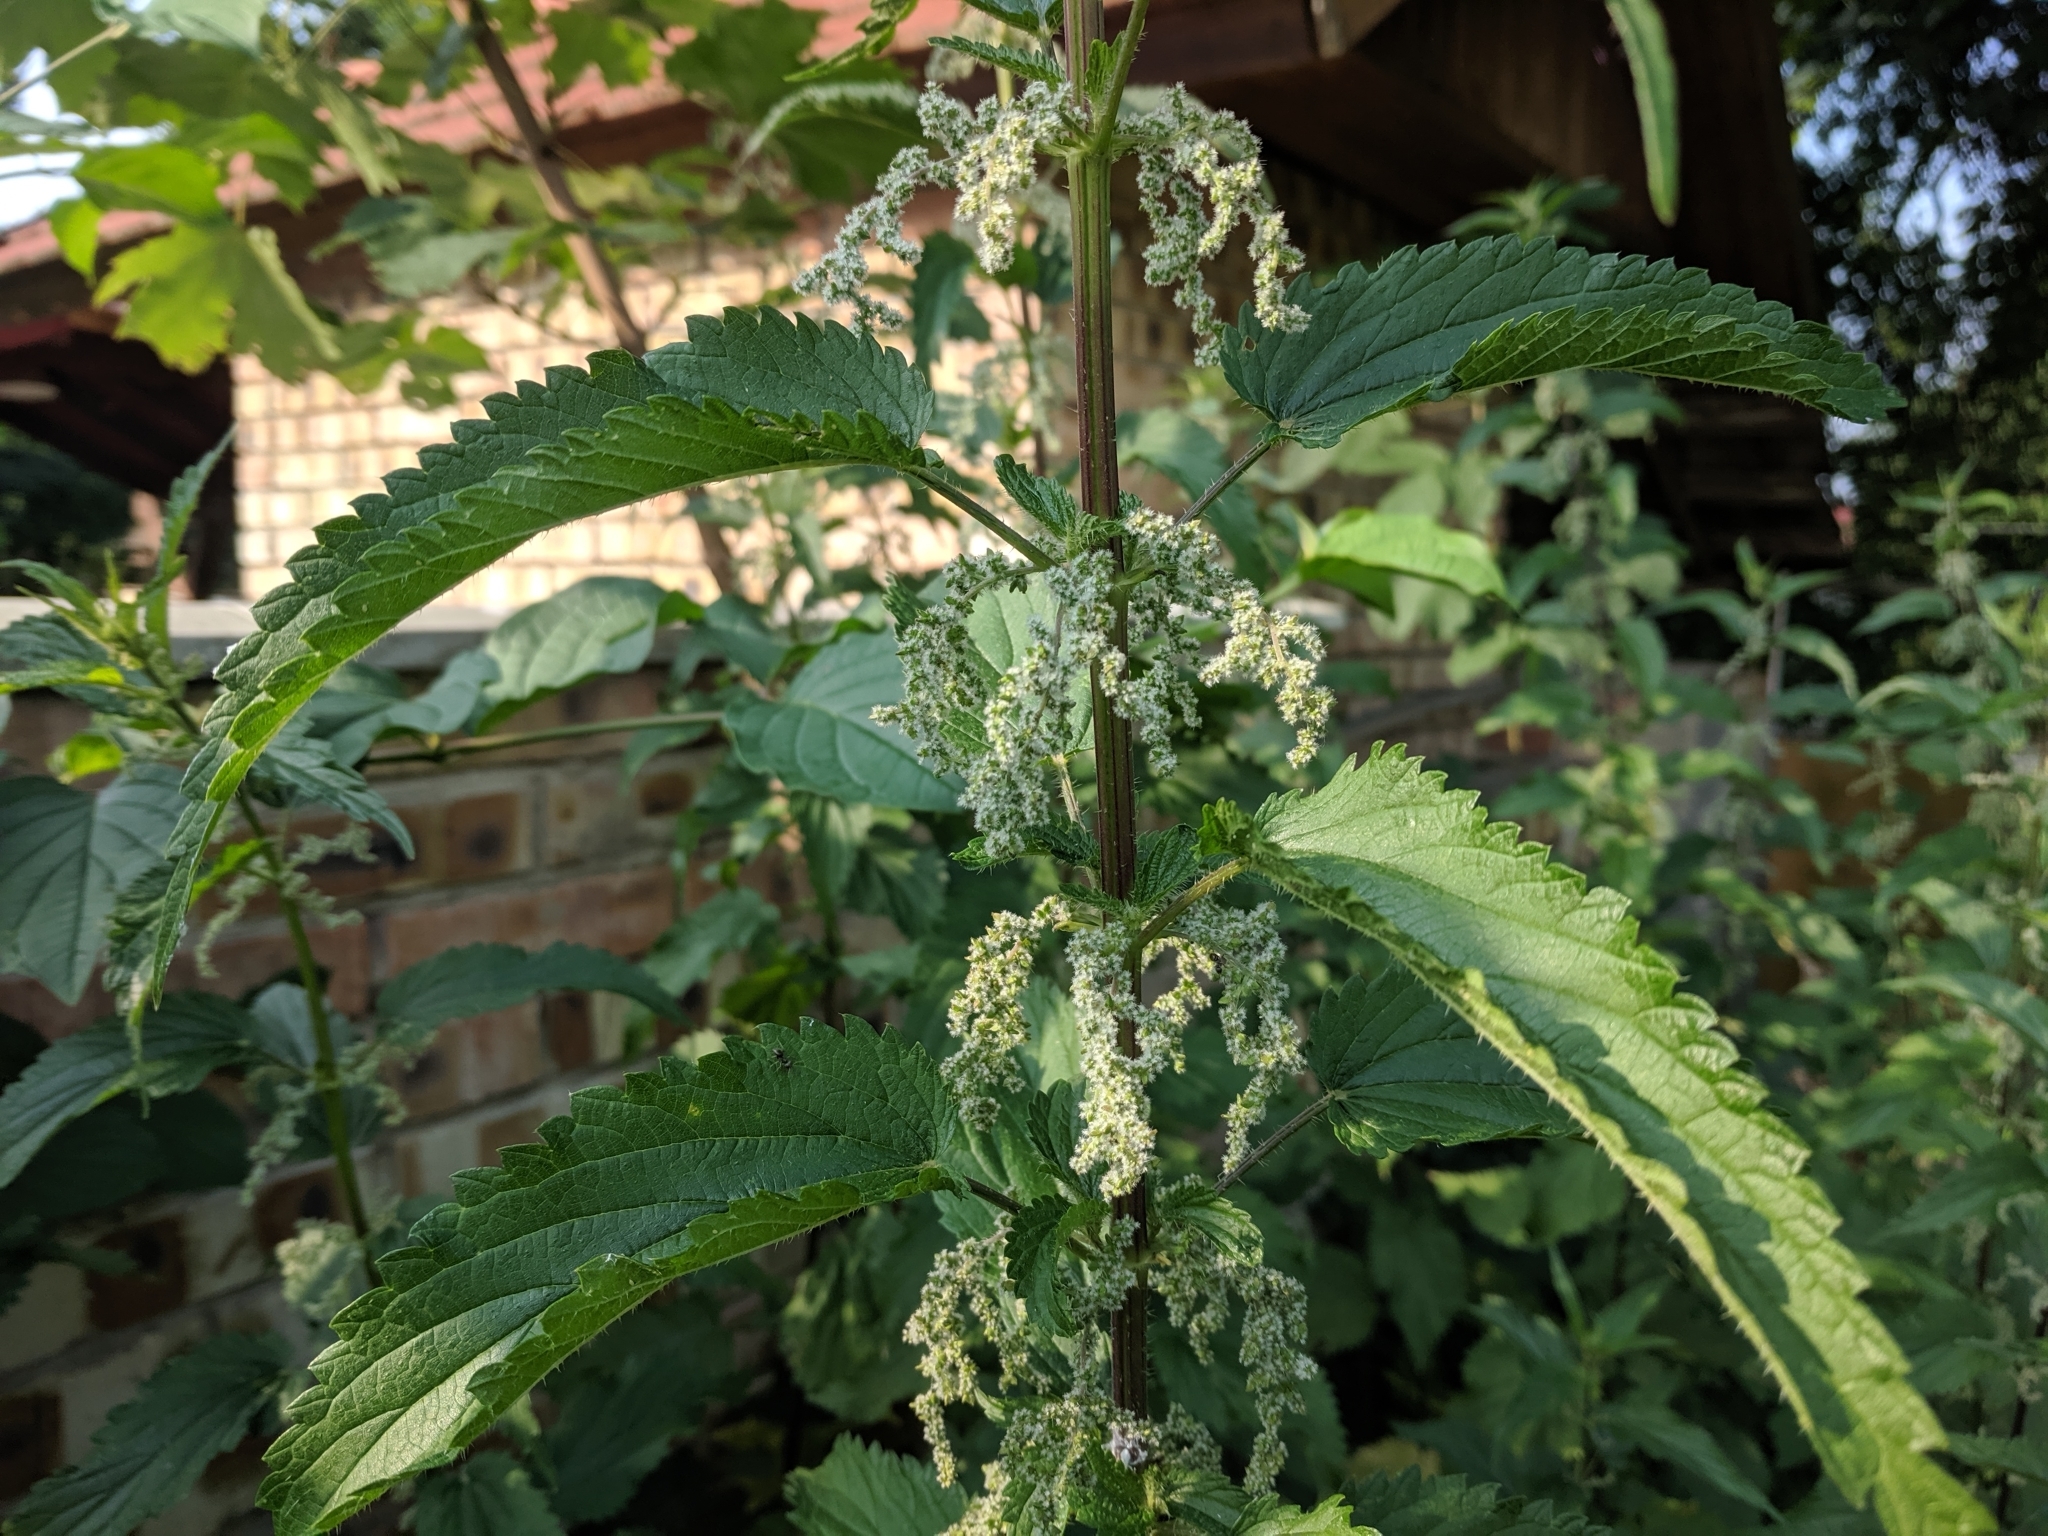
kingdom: Plantae
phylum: Tracheophyta
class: Magnoliopsida
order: Rosales
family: Urticaceae
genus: Urtica
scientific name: Urtica dioica
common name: Common nettle
